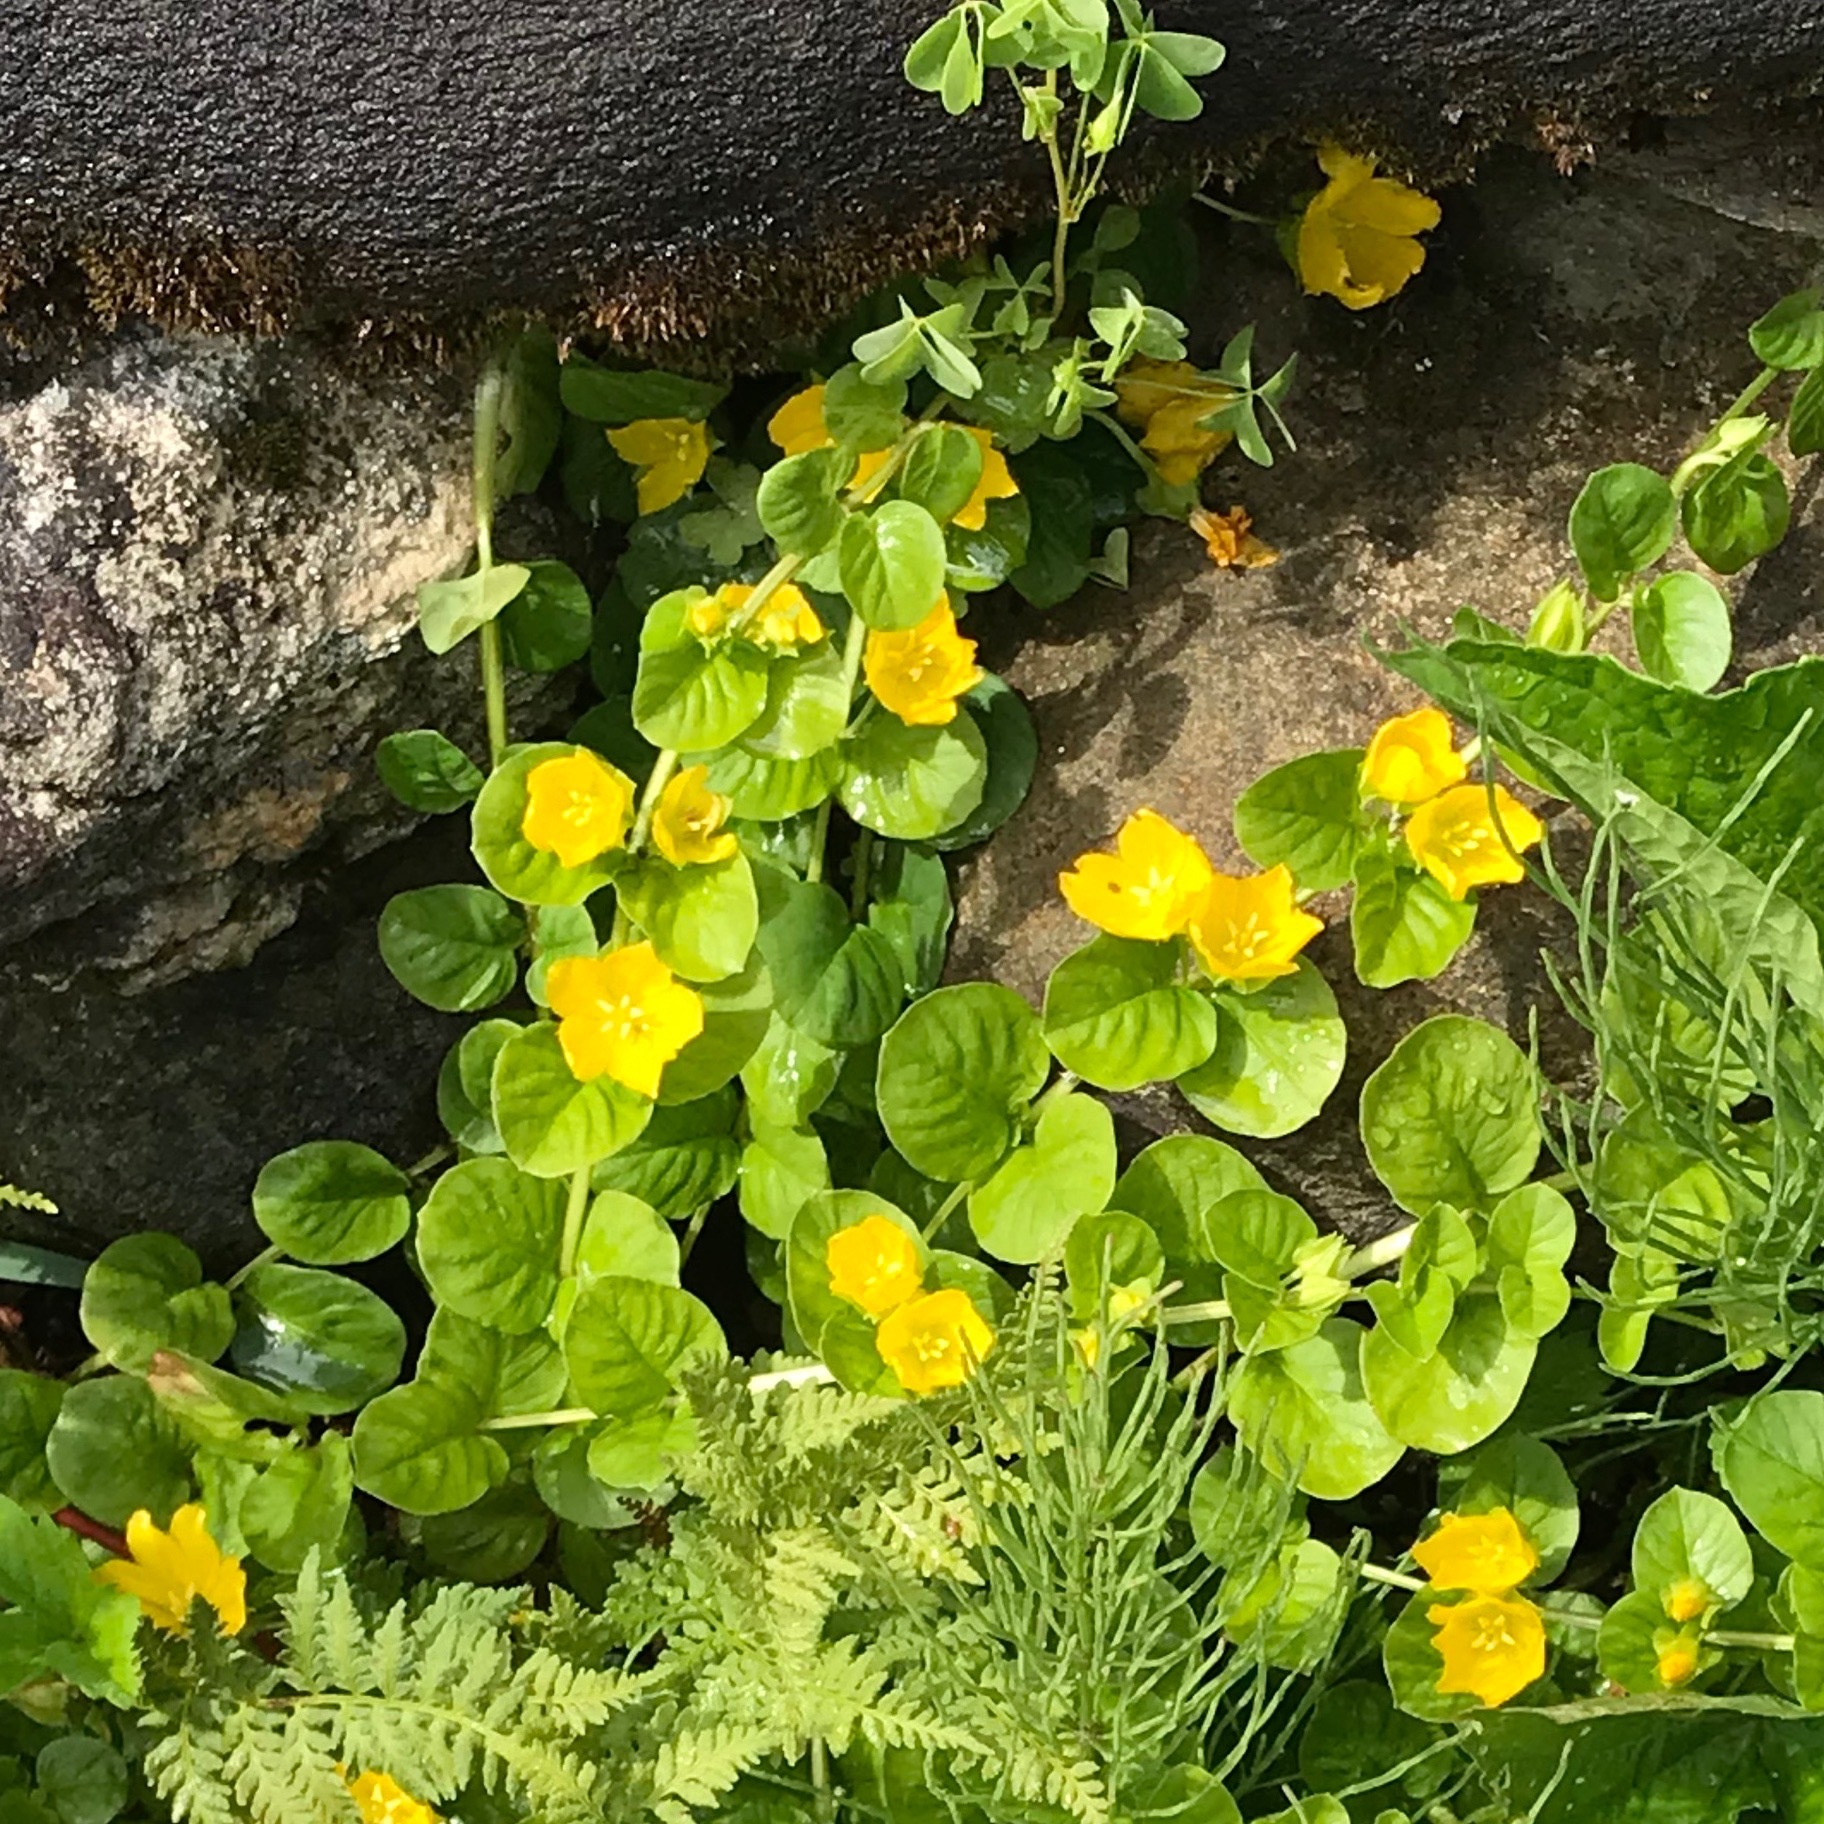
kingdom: Plantae
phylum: Tracheophyta
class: Magnoliopsida
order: Ericales
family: Primulaceae
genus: Lysimachia
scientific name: Lysimachia nummularia
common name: Moneywort
